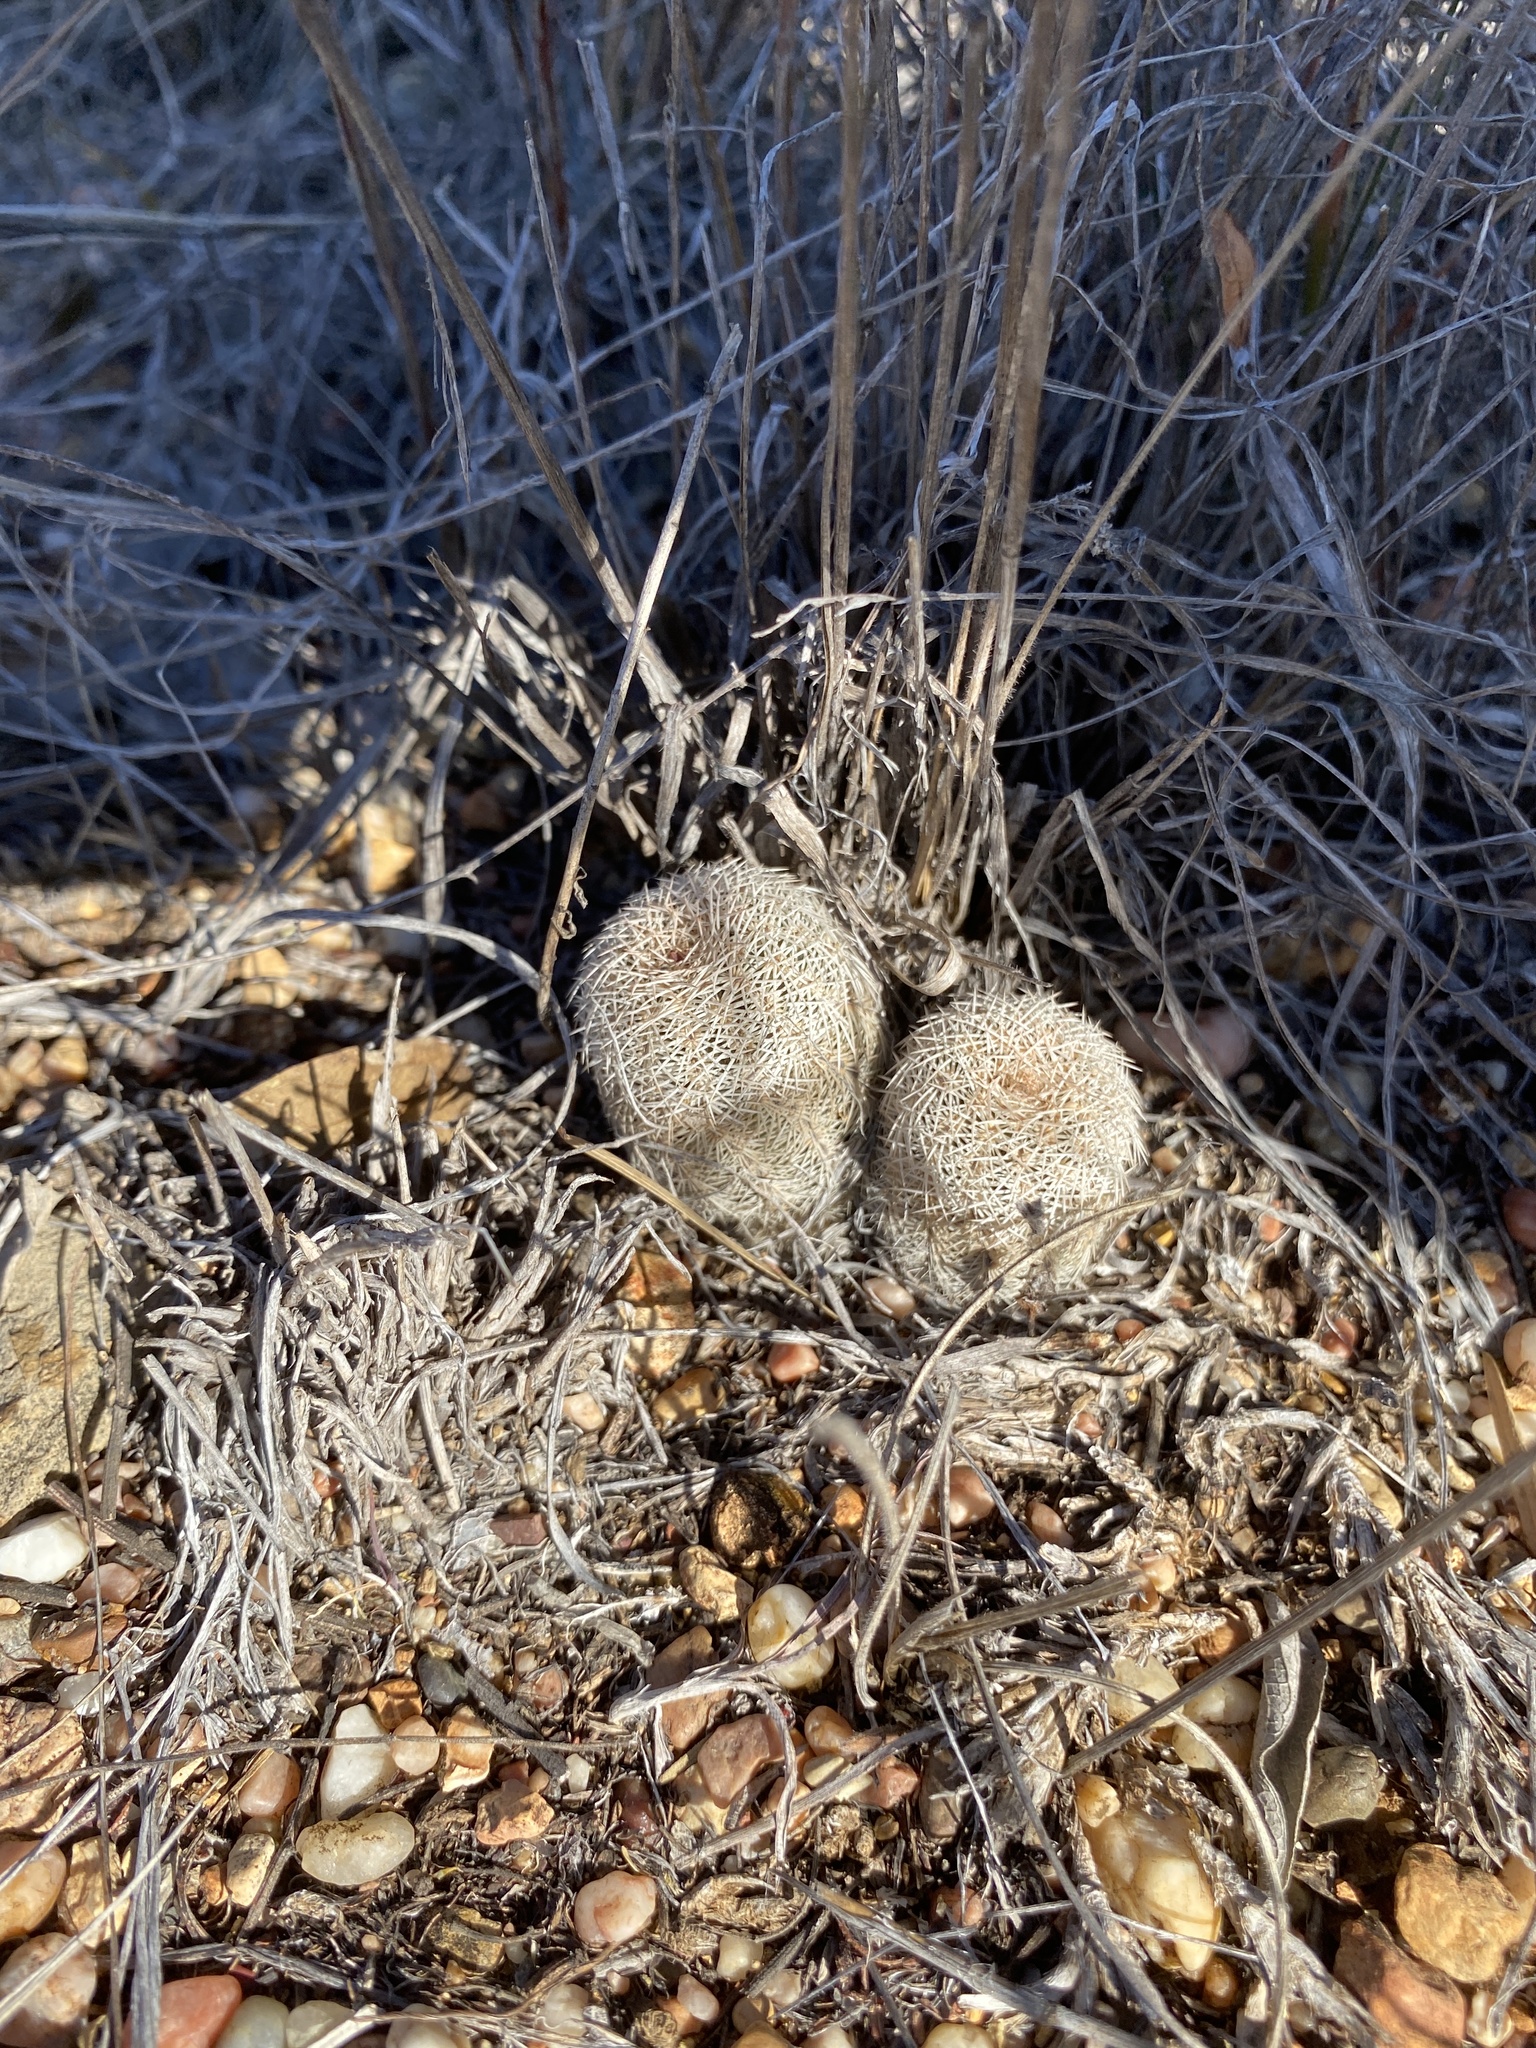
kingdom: Plantae
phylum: Tracheophyta
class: Magnoliopsida
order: Caryophyllales
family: Cactaceae
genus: Echinocereus
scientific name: Echinocereus reichenbachii
